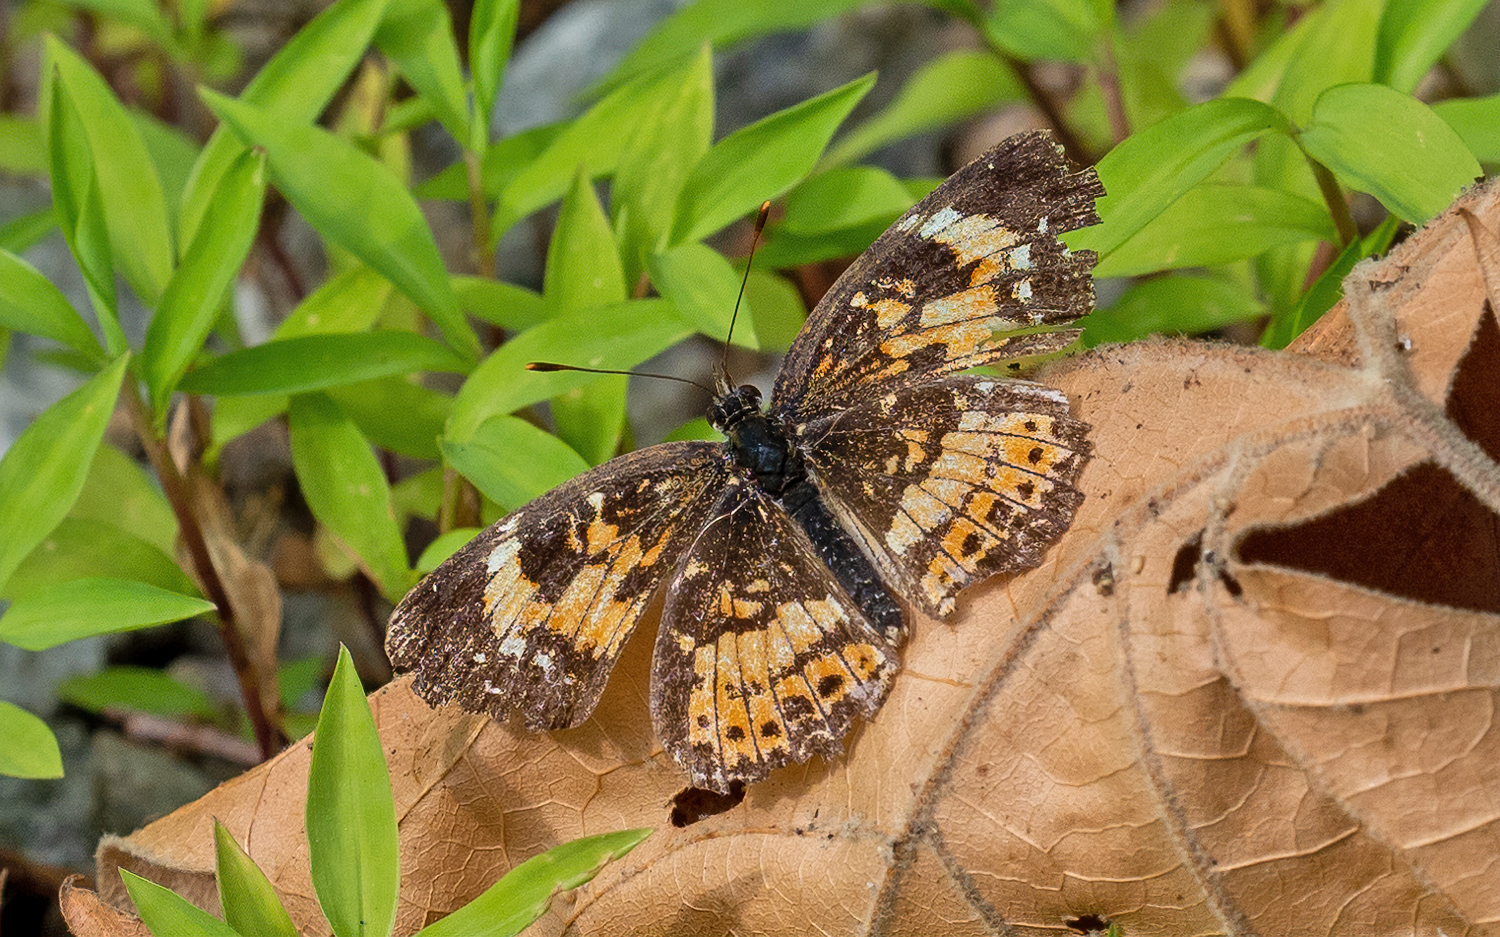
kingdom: Animalia
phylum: Arthropoda
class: Insecta
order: Lepidoptera
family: Nymphalidae
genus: Chlosyne
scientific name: Chlosyne nycteis
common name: Silvery checkerspot
